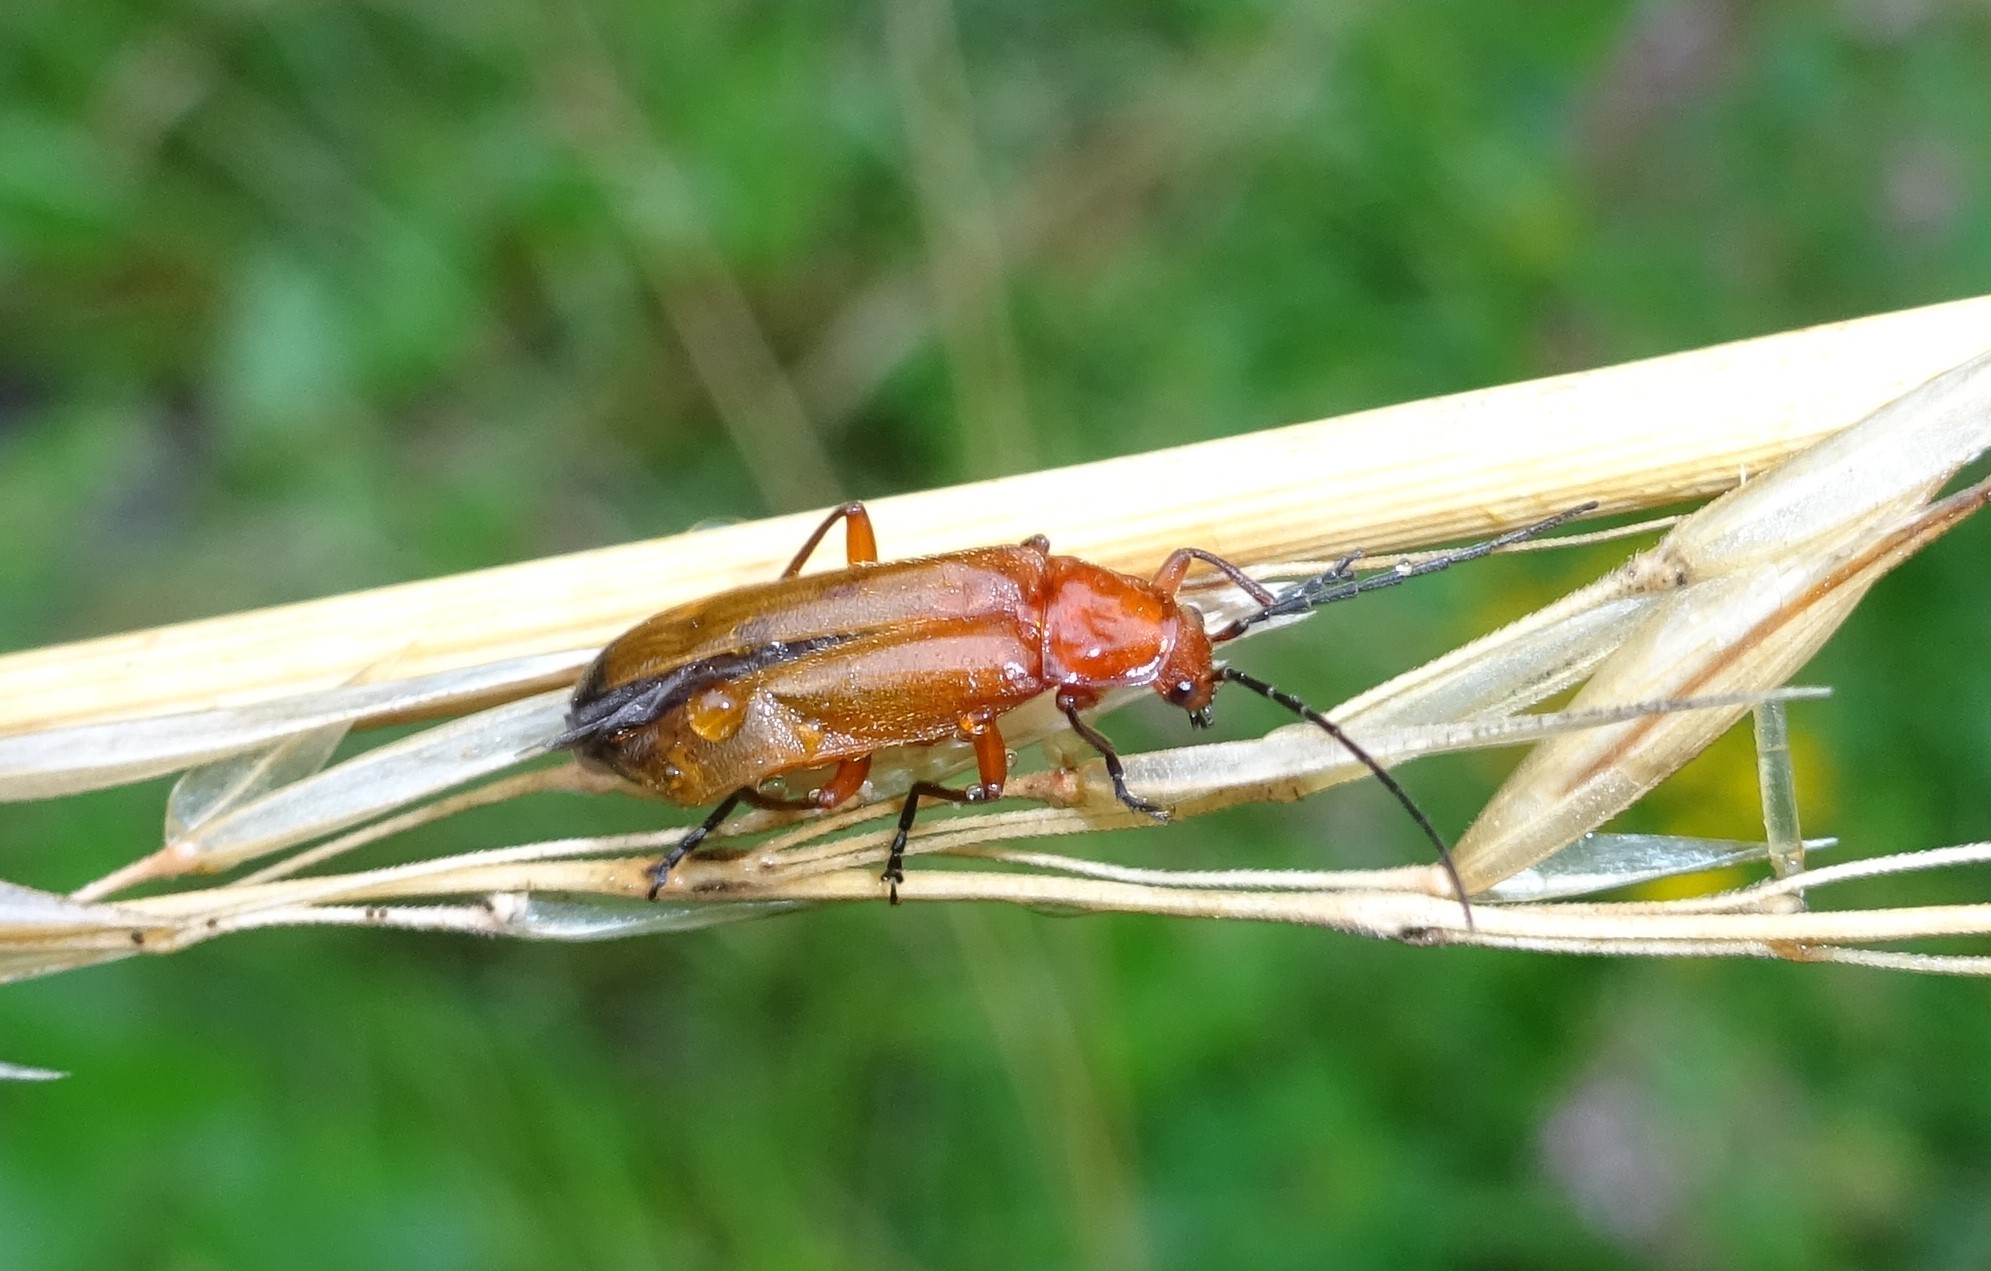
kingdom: Animalia
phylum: Arthropoda
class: Insecta
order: Coleoptera
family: Cantharidae
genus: Rhagonycha
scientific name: Rhagonycha fulva
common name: Common red soldier beetle
